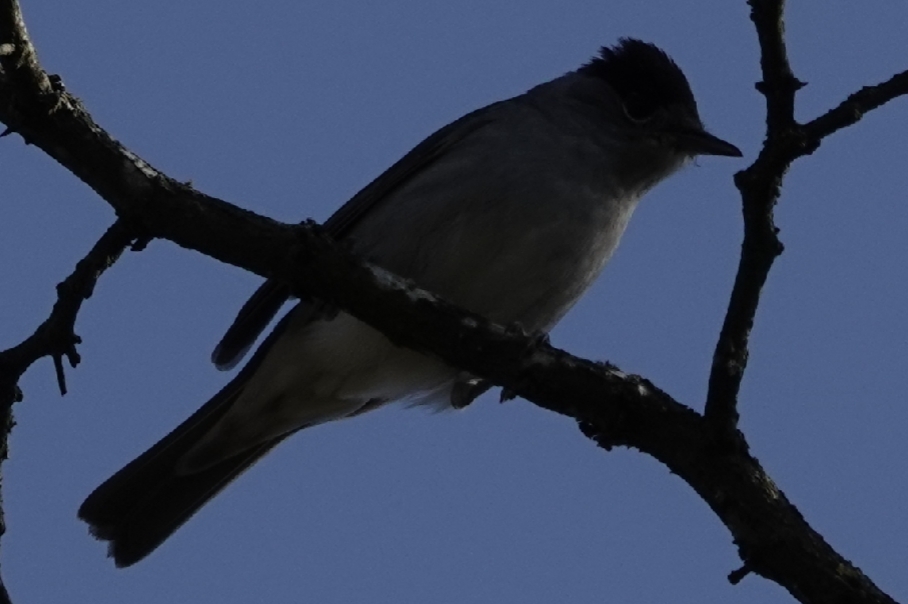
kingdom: Animalia
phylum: Chordata
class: Aves
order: Passeriformes
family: Sylviidae
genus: Sylvia
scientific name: Sylvia atricapilla
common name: Eurasian blackcap
